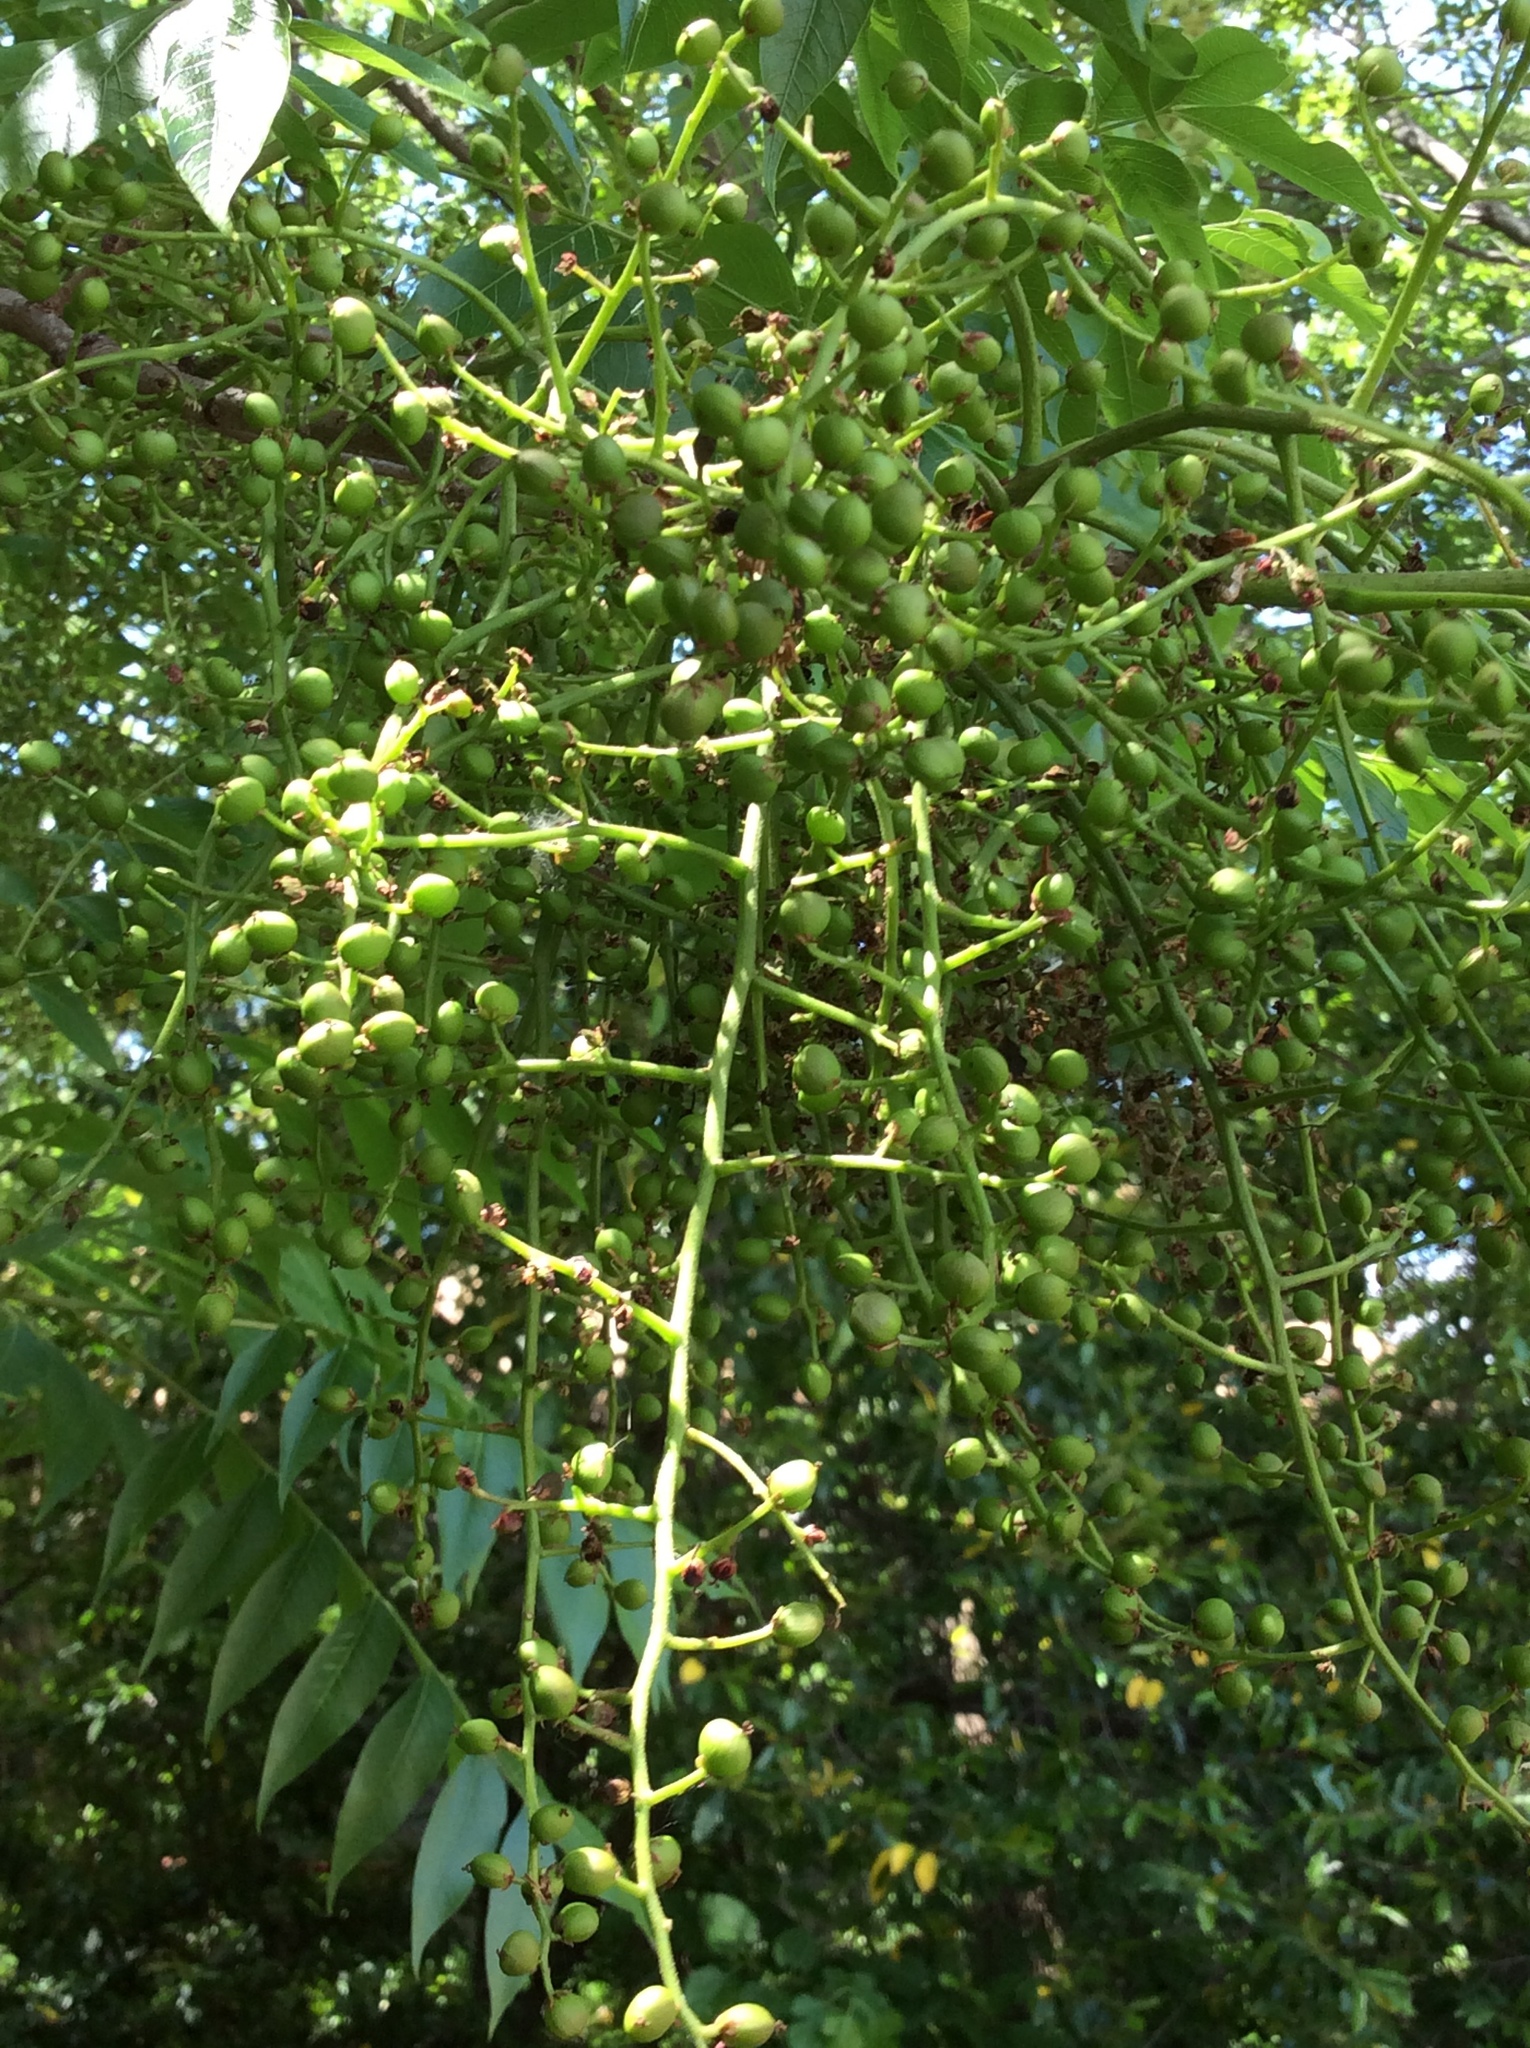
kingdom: Plantae
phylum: Tracheophyta
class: Magnoliopsida
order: Sapindales
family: Anacardiaceae
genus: Pistacia
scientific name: Pistacia chinensis
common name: Chinese pistache
